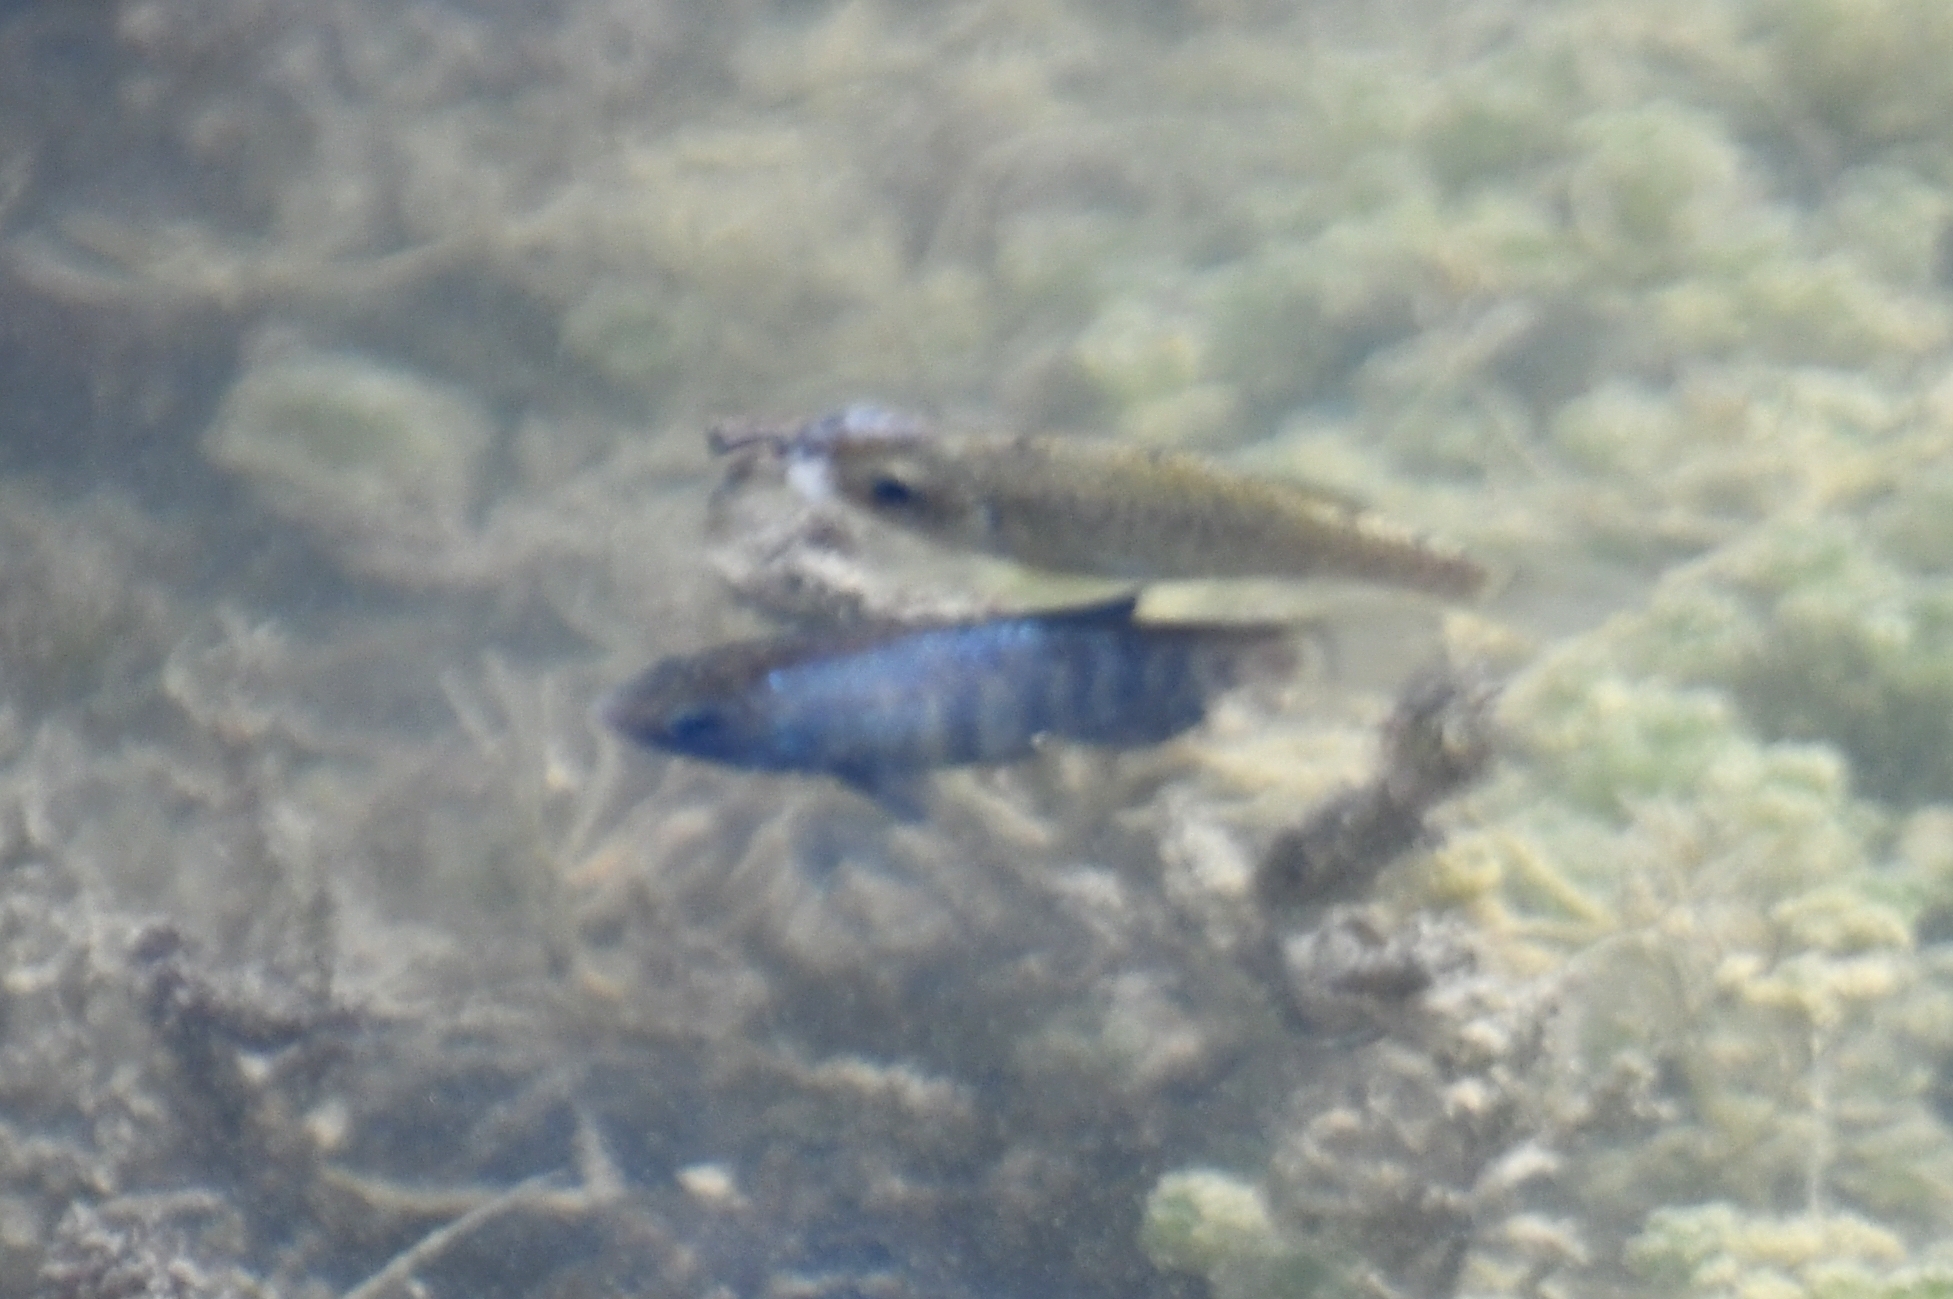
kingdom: Animalia
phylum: Chordata
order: Cyprinodontiformes
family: Cyprinodontidae
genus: Cyprinodon
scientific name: Cyprinodon macularius
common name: Desert pupfish
